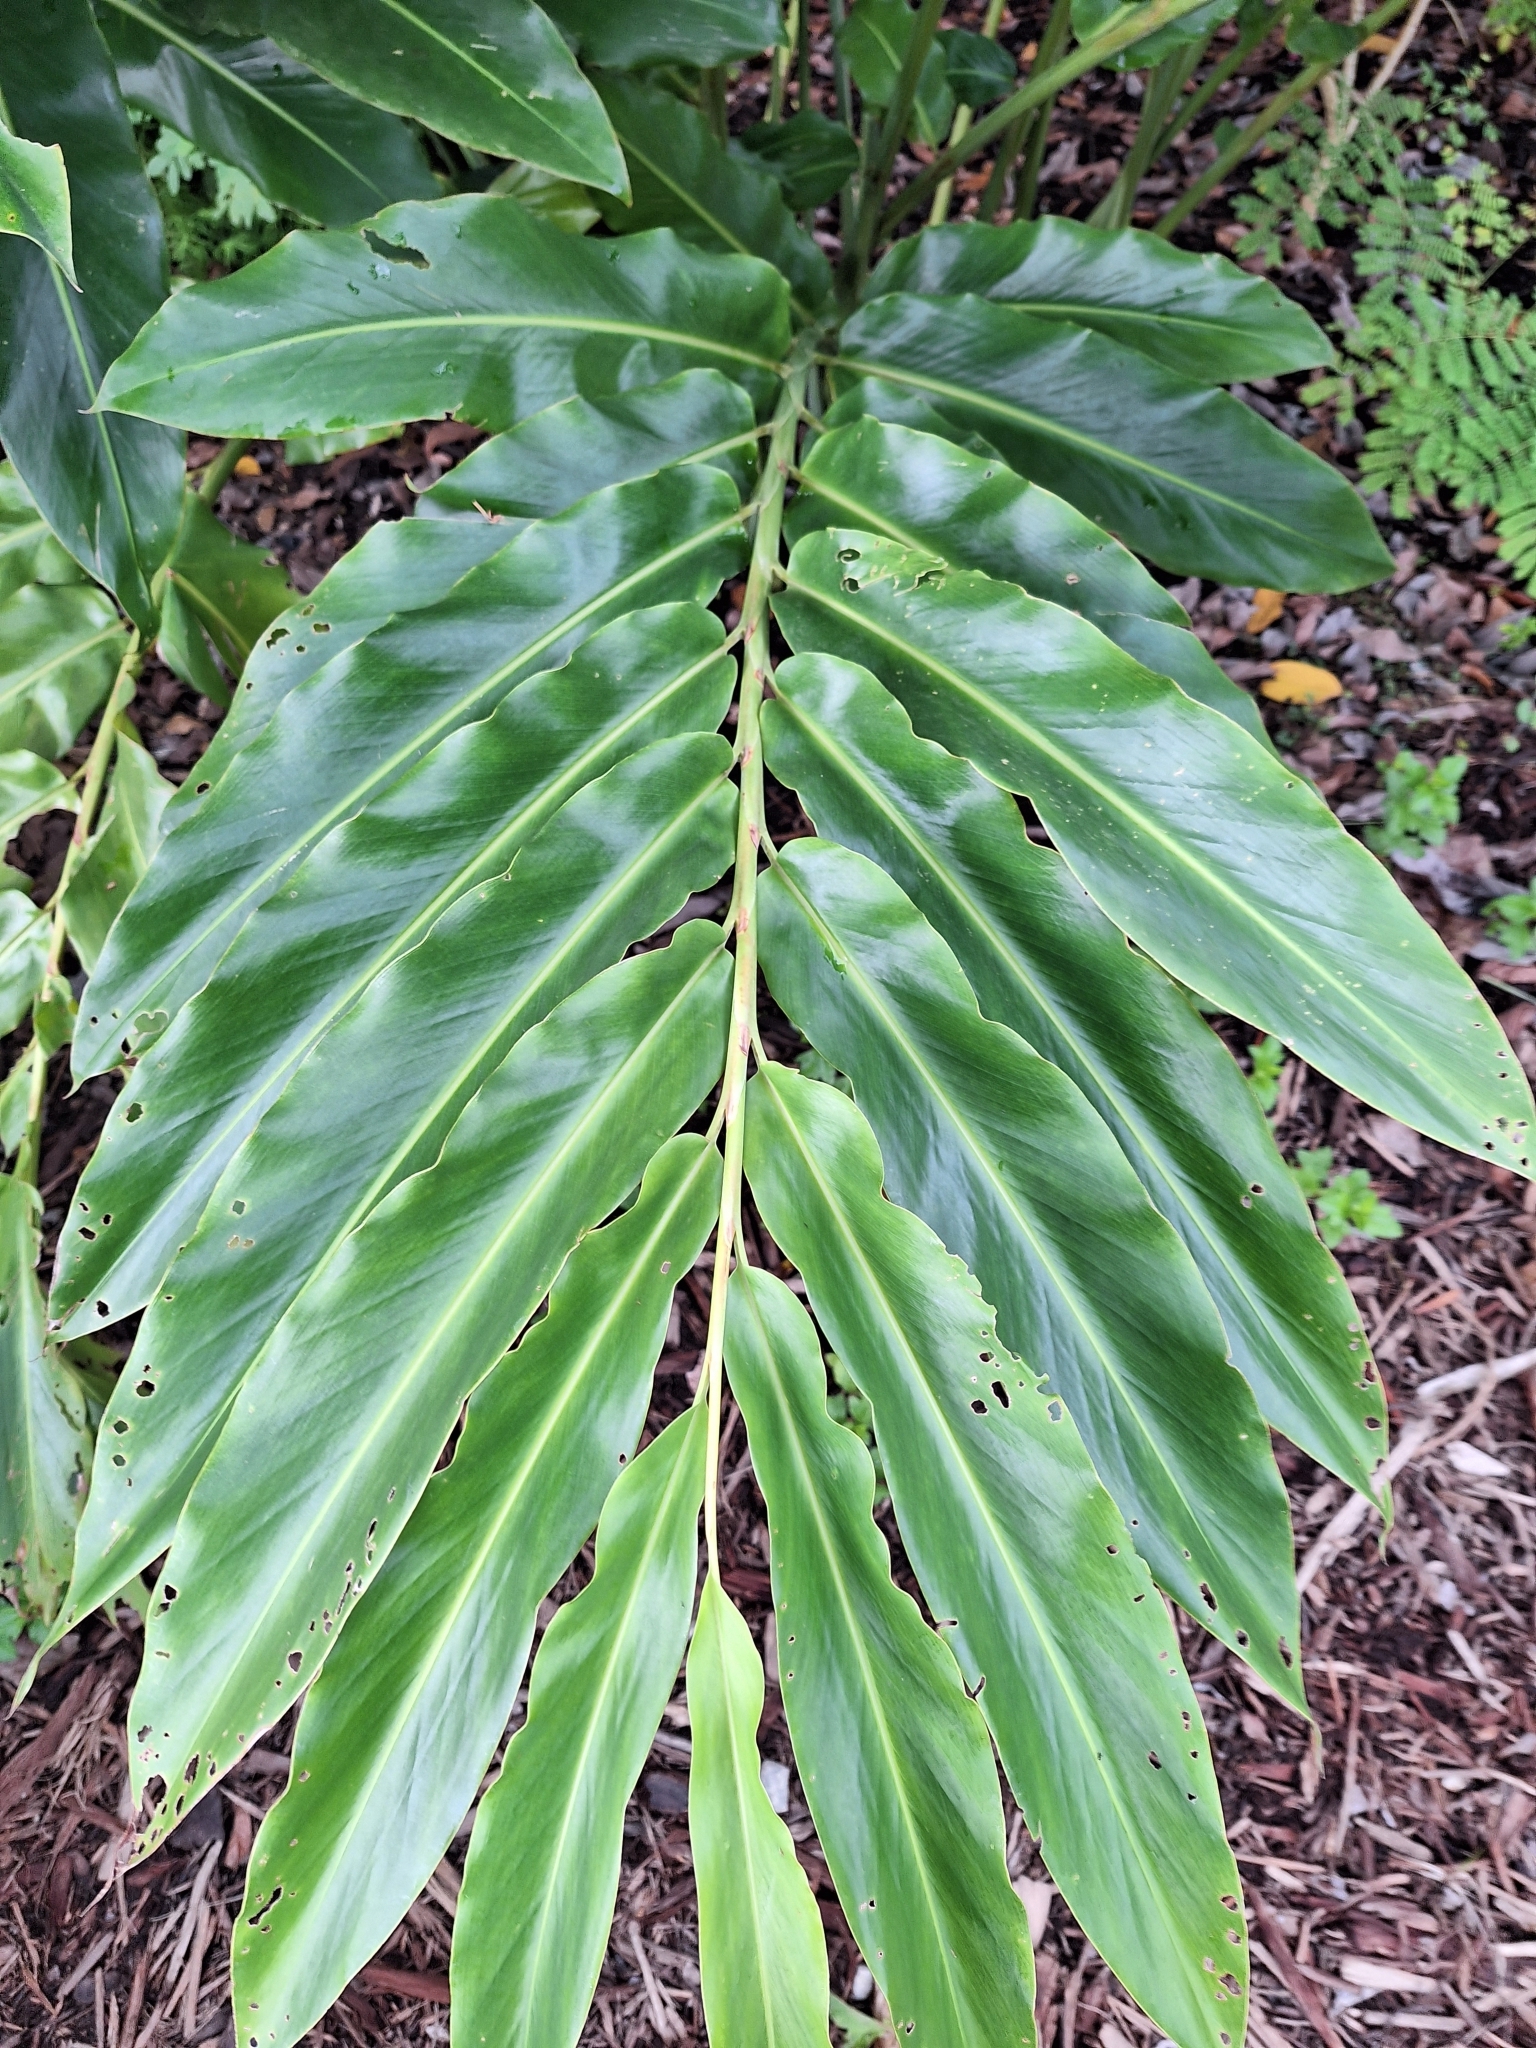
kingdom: Plantae
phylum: Tracheophyta
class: Liliopsida
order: Zingiberales
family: Zingiberaceae
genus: Etlingera
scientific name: Etlingera elatior
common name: Philippine waxflower
